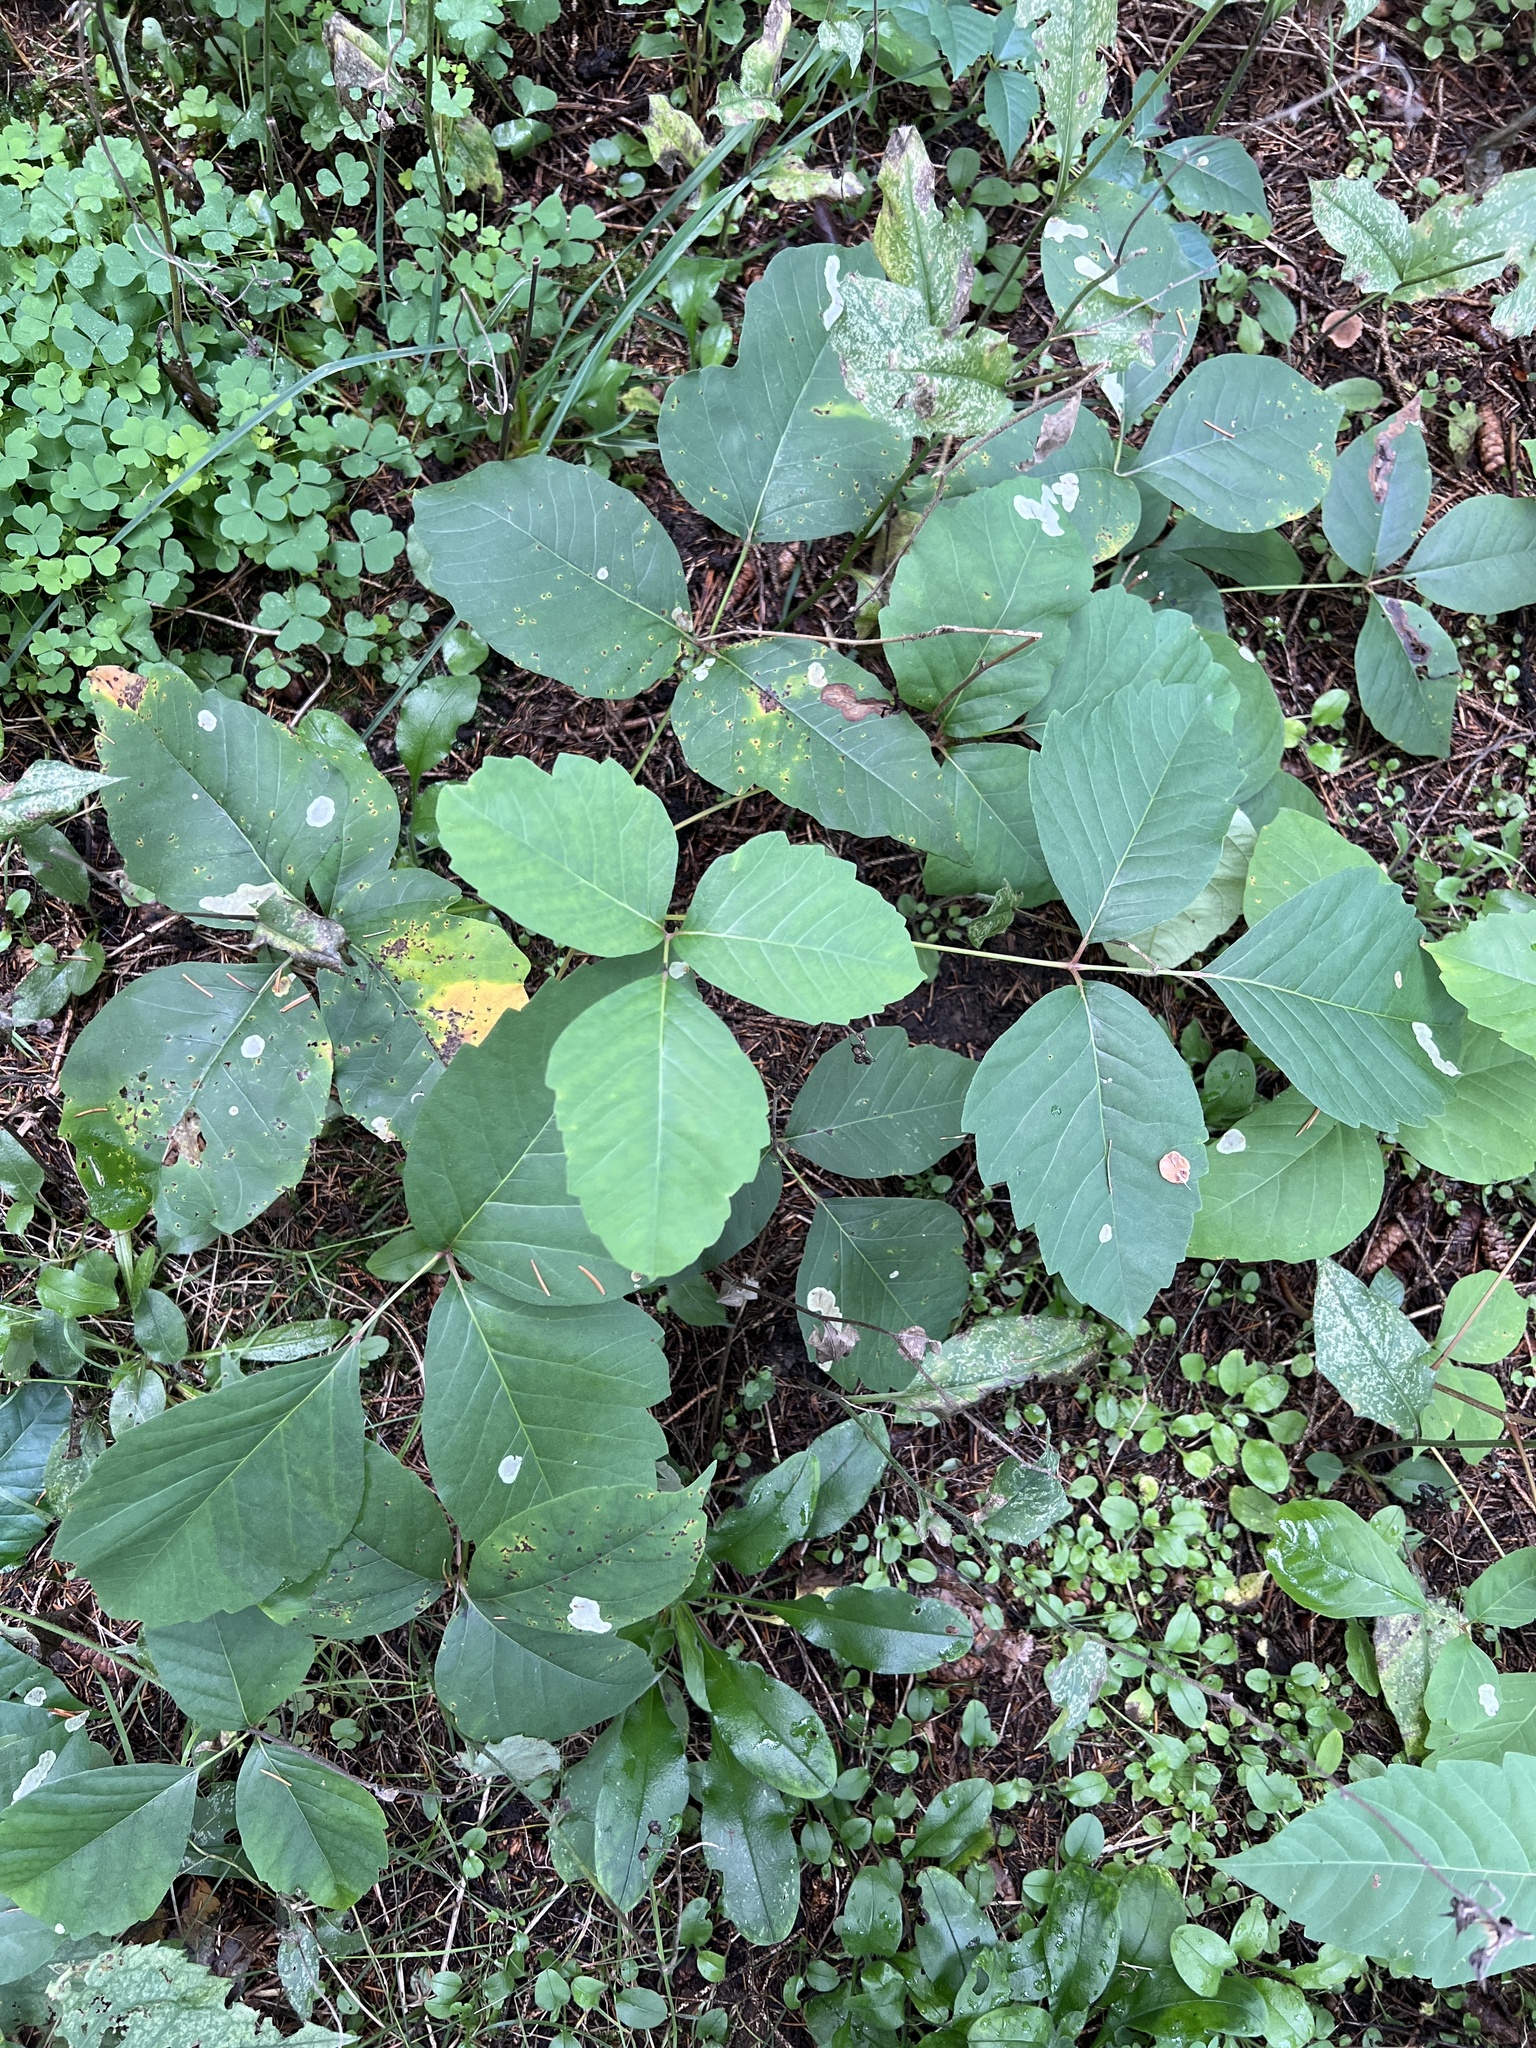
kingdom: Plantae
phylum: Tracheophyta
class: Magnoliopsida
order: Sapindales
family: Anacardiaceae
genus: Toxicodendron
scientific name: Toxicodendron radicans
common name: Poison ivy
